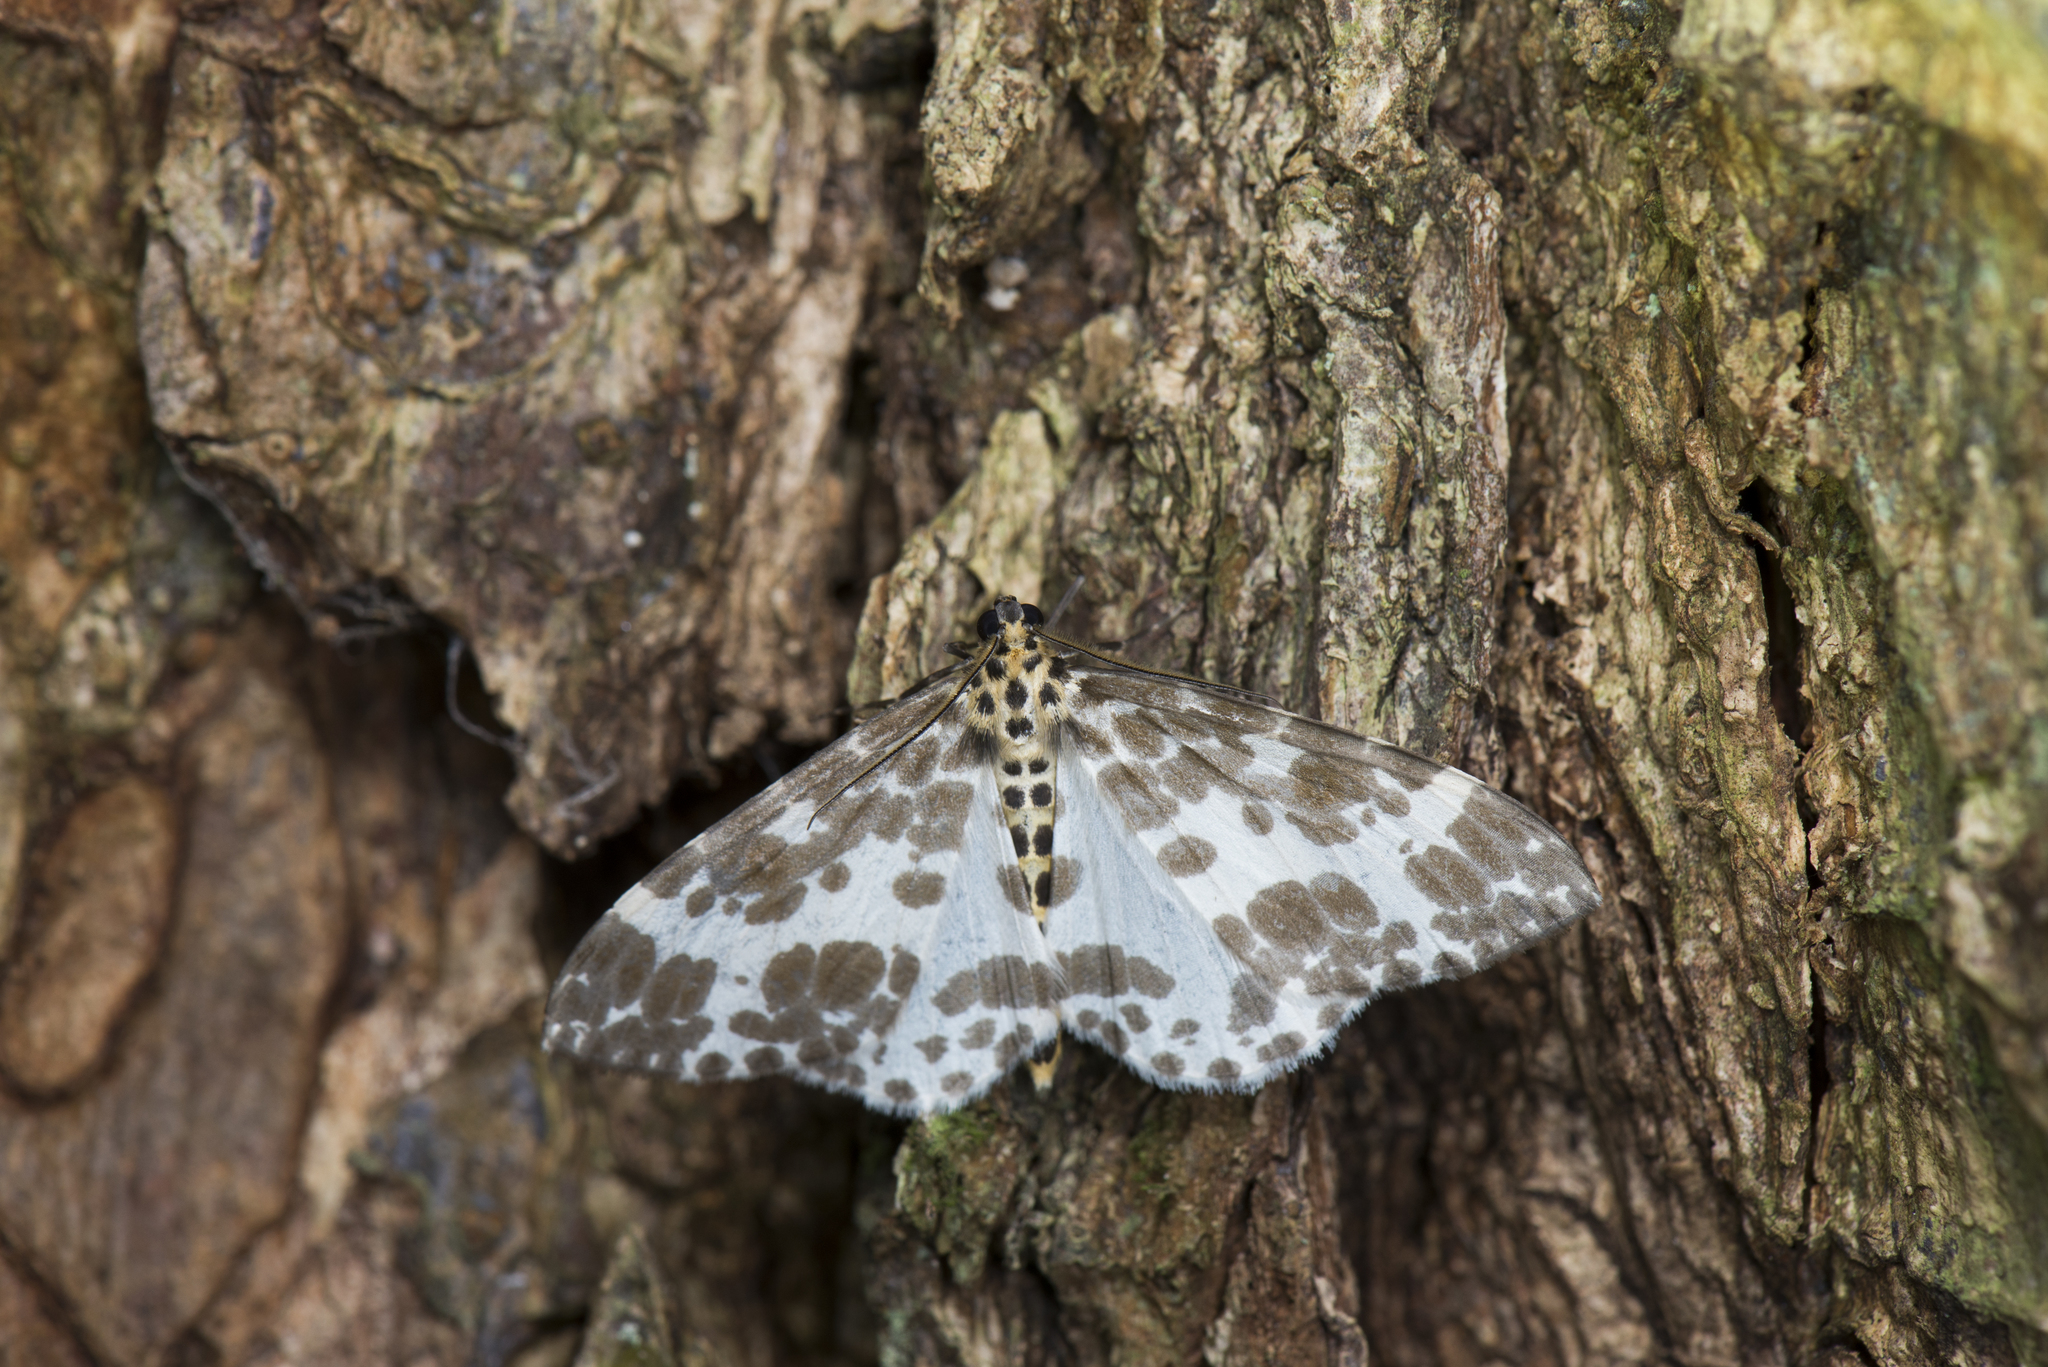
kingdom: Animalia
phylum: Arthropoda
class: Insecta
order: Lepidoptera
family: Geometridae
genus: Dilophodes
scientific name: Dilophodes elegans
